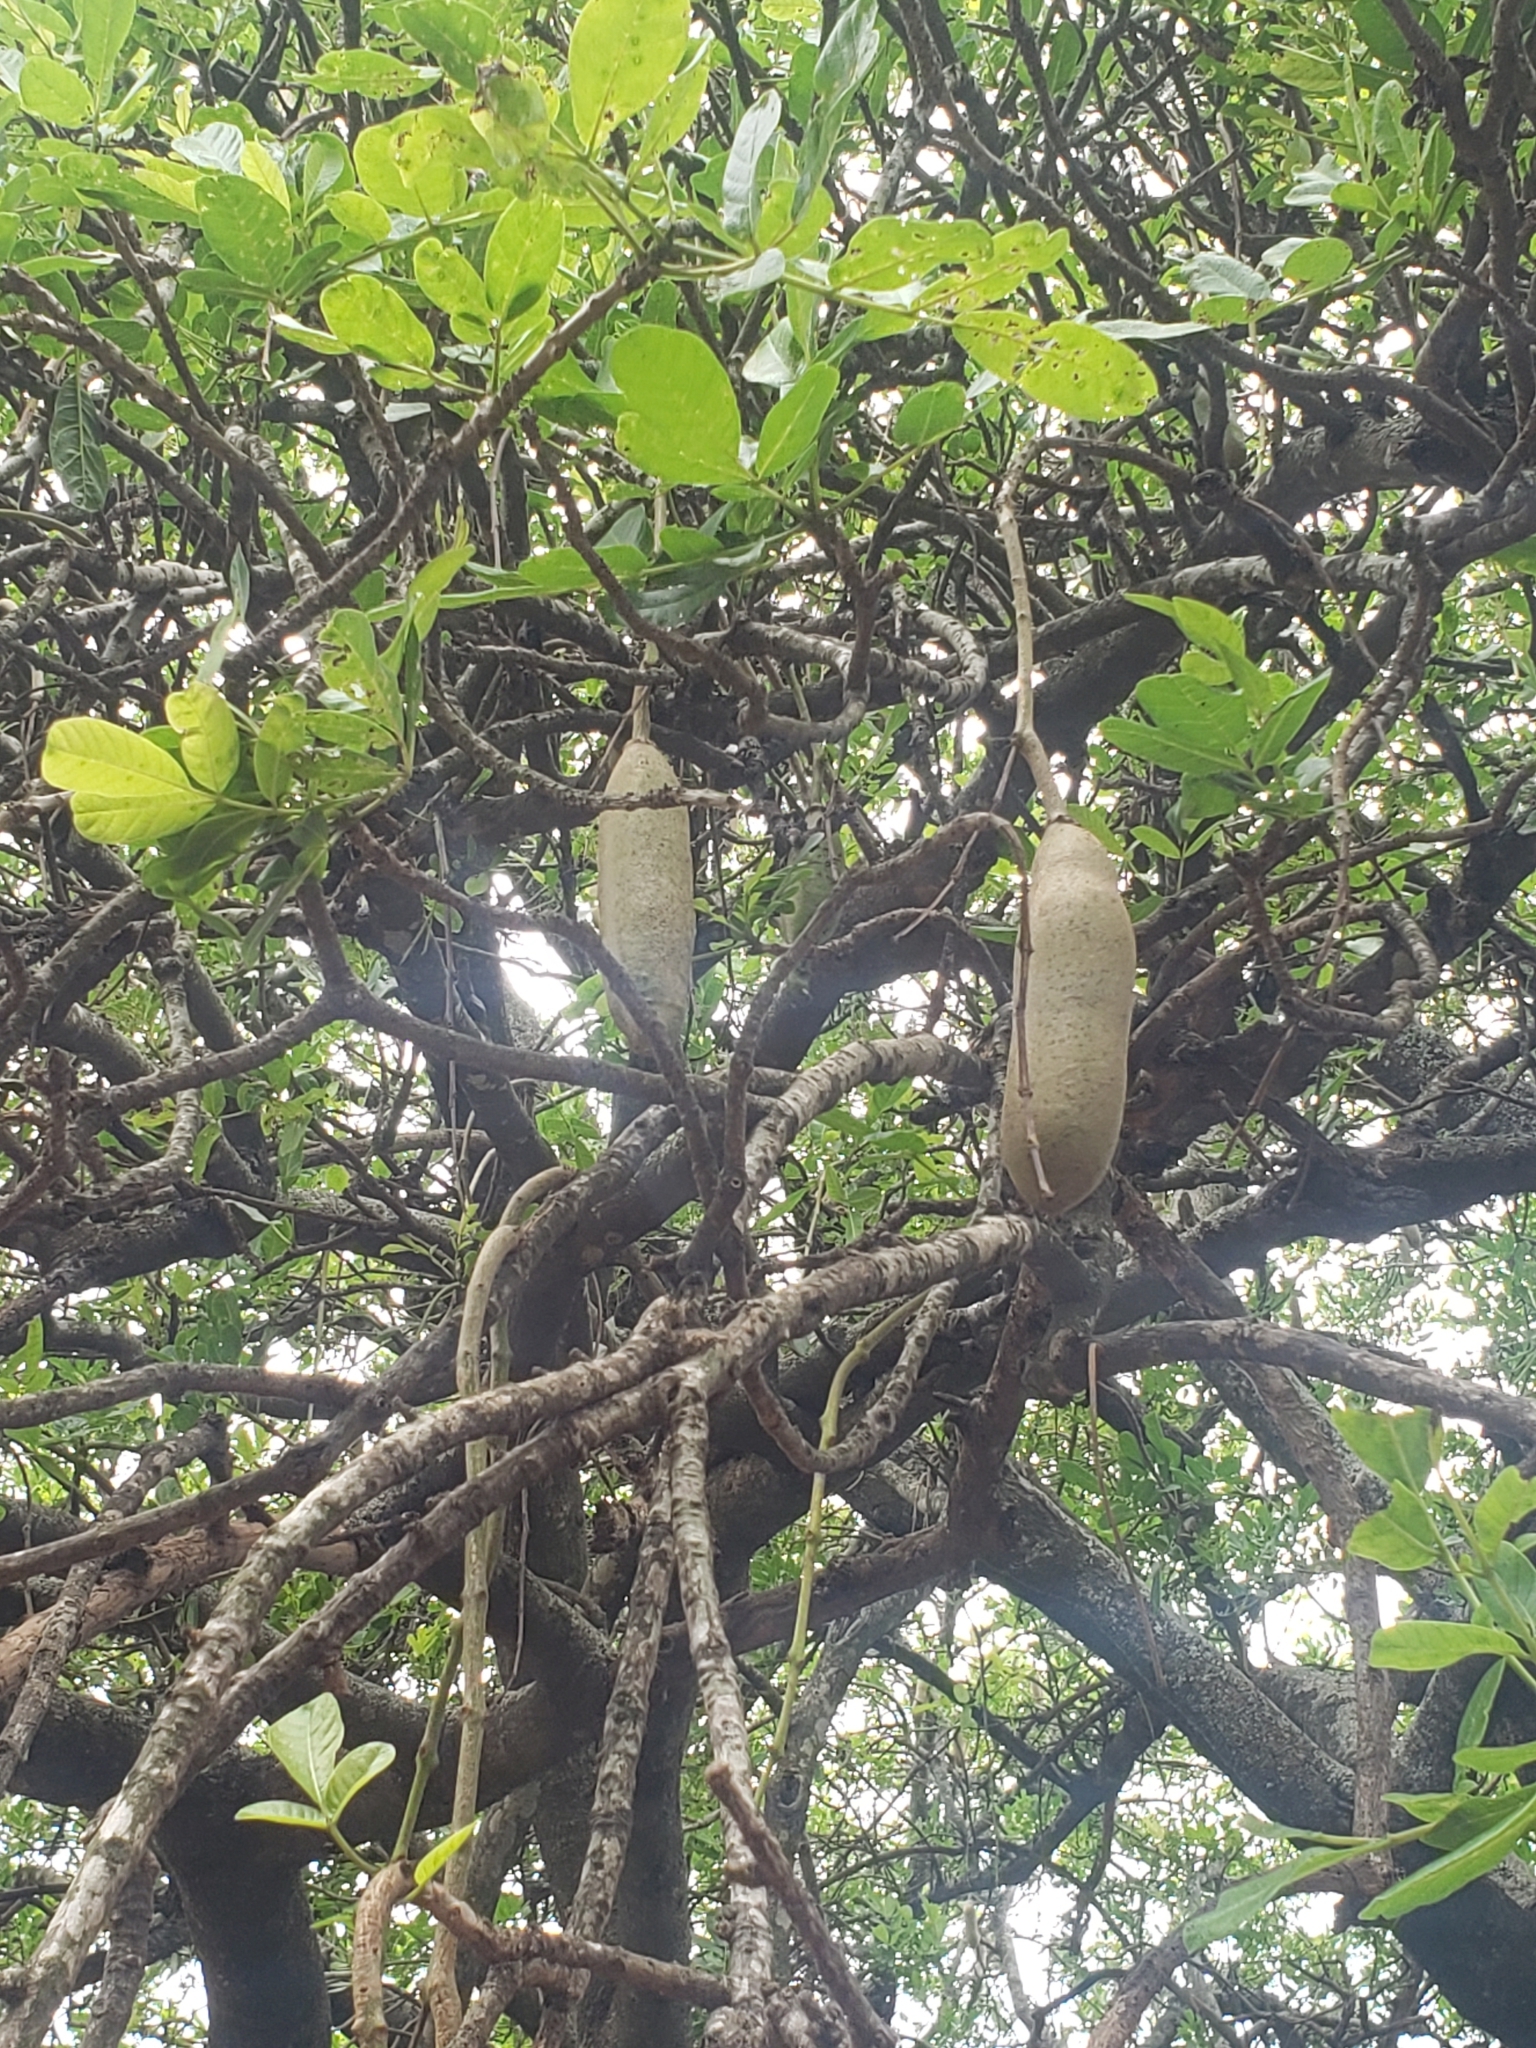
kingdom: Plantae
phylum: Tracheophyta
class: Magnoliopsida
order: Lamiales
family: Bignoniaceae
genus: Kigelia
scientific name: Kigelia africana
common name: Sausage tree
